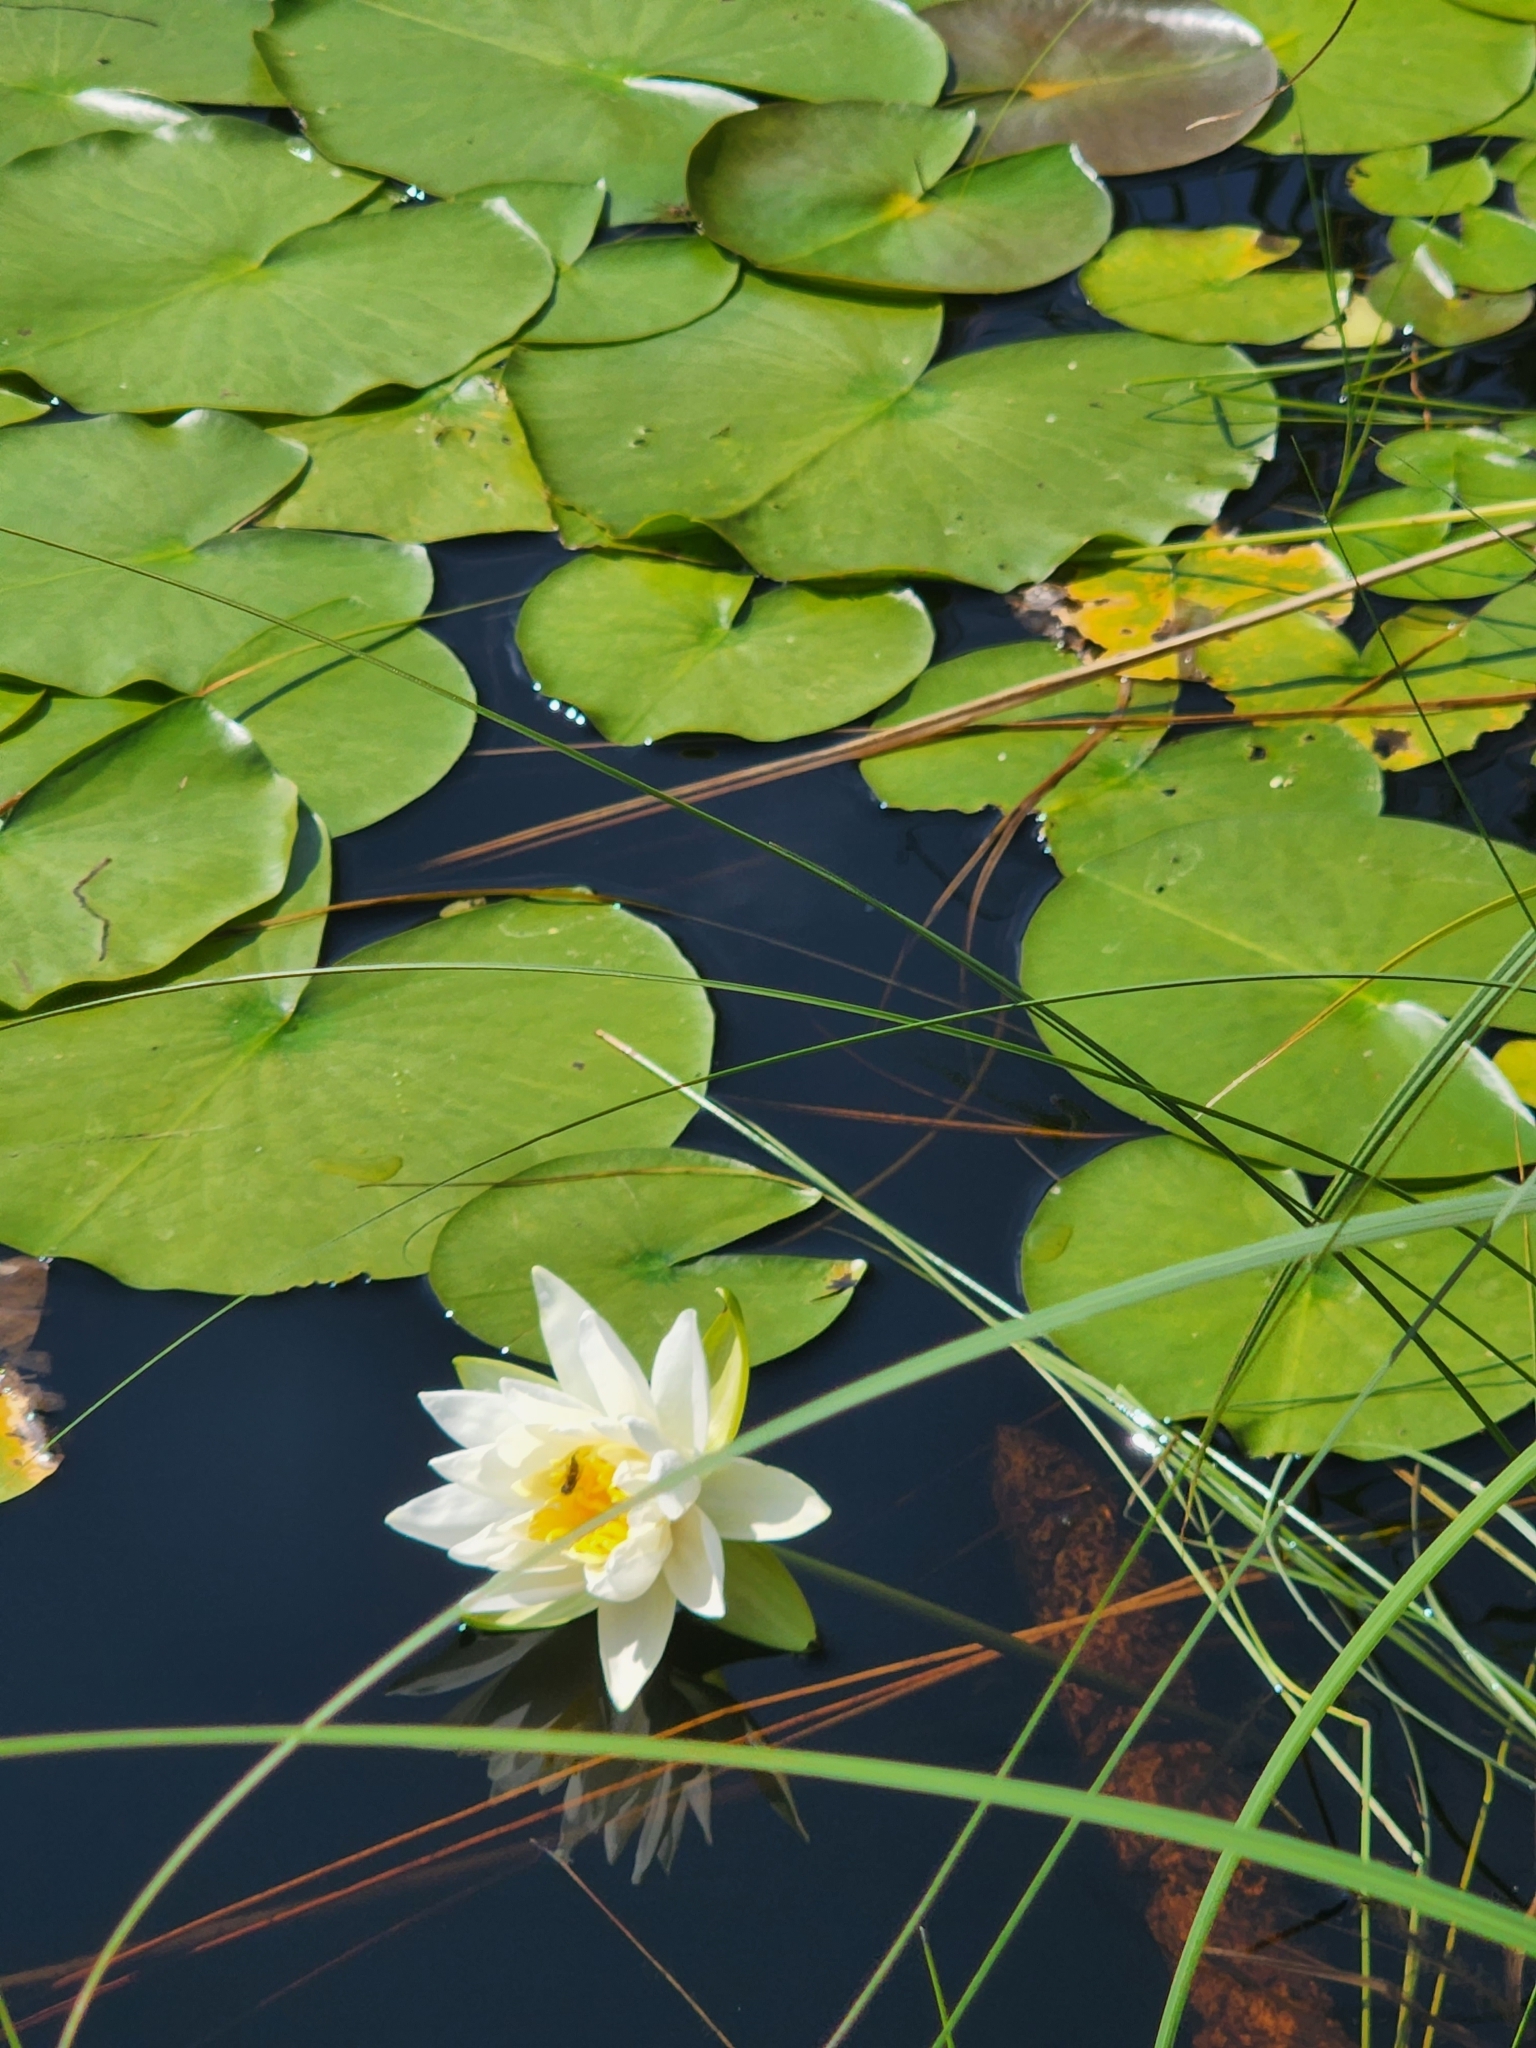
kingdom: Plantae
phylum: Tracheophyta
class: Magnoliopsida
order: Nymphaeales
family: Nymphaeaceae
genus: Nymphaea
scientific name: Nymphaea odorata
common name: Fragrant water-lily
